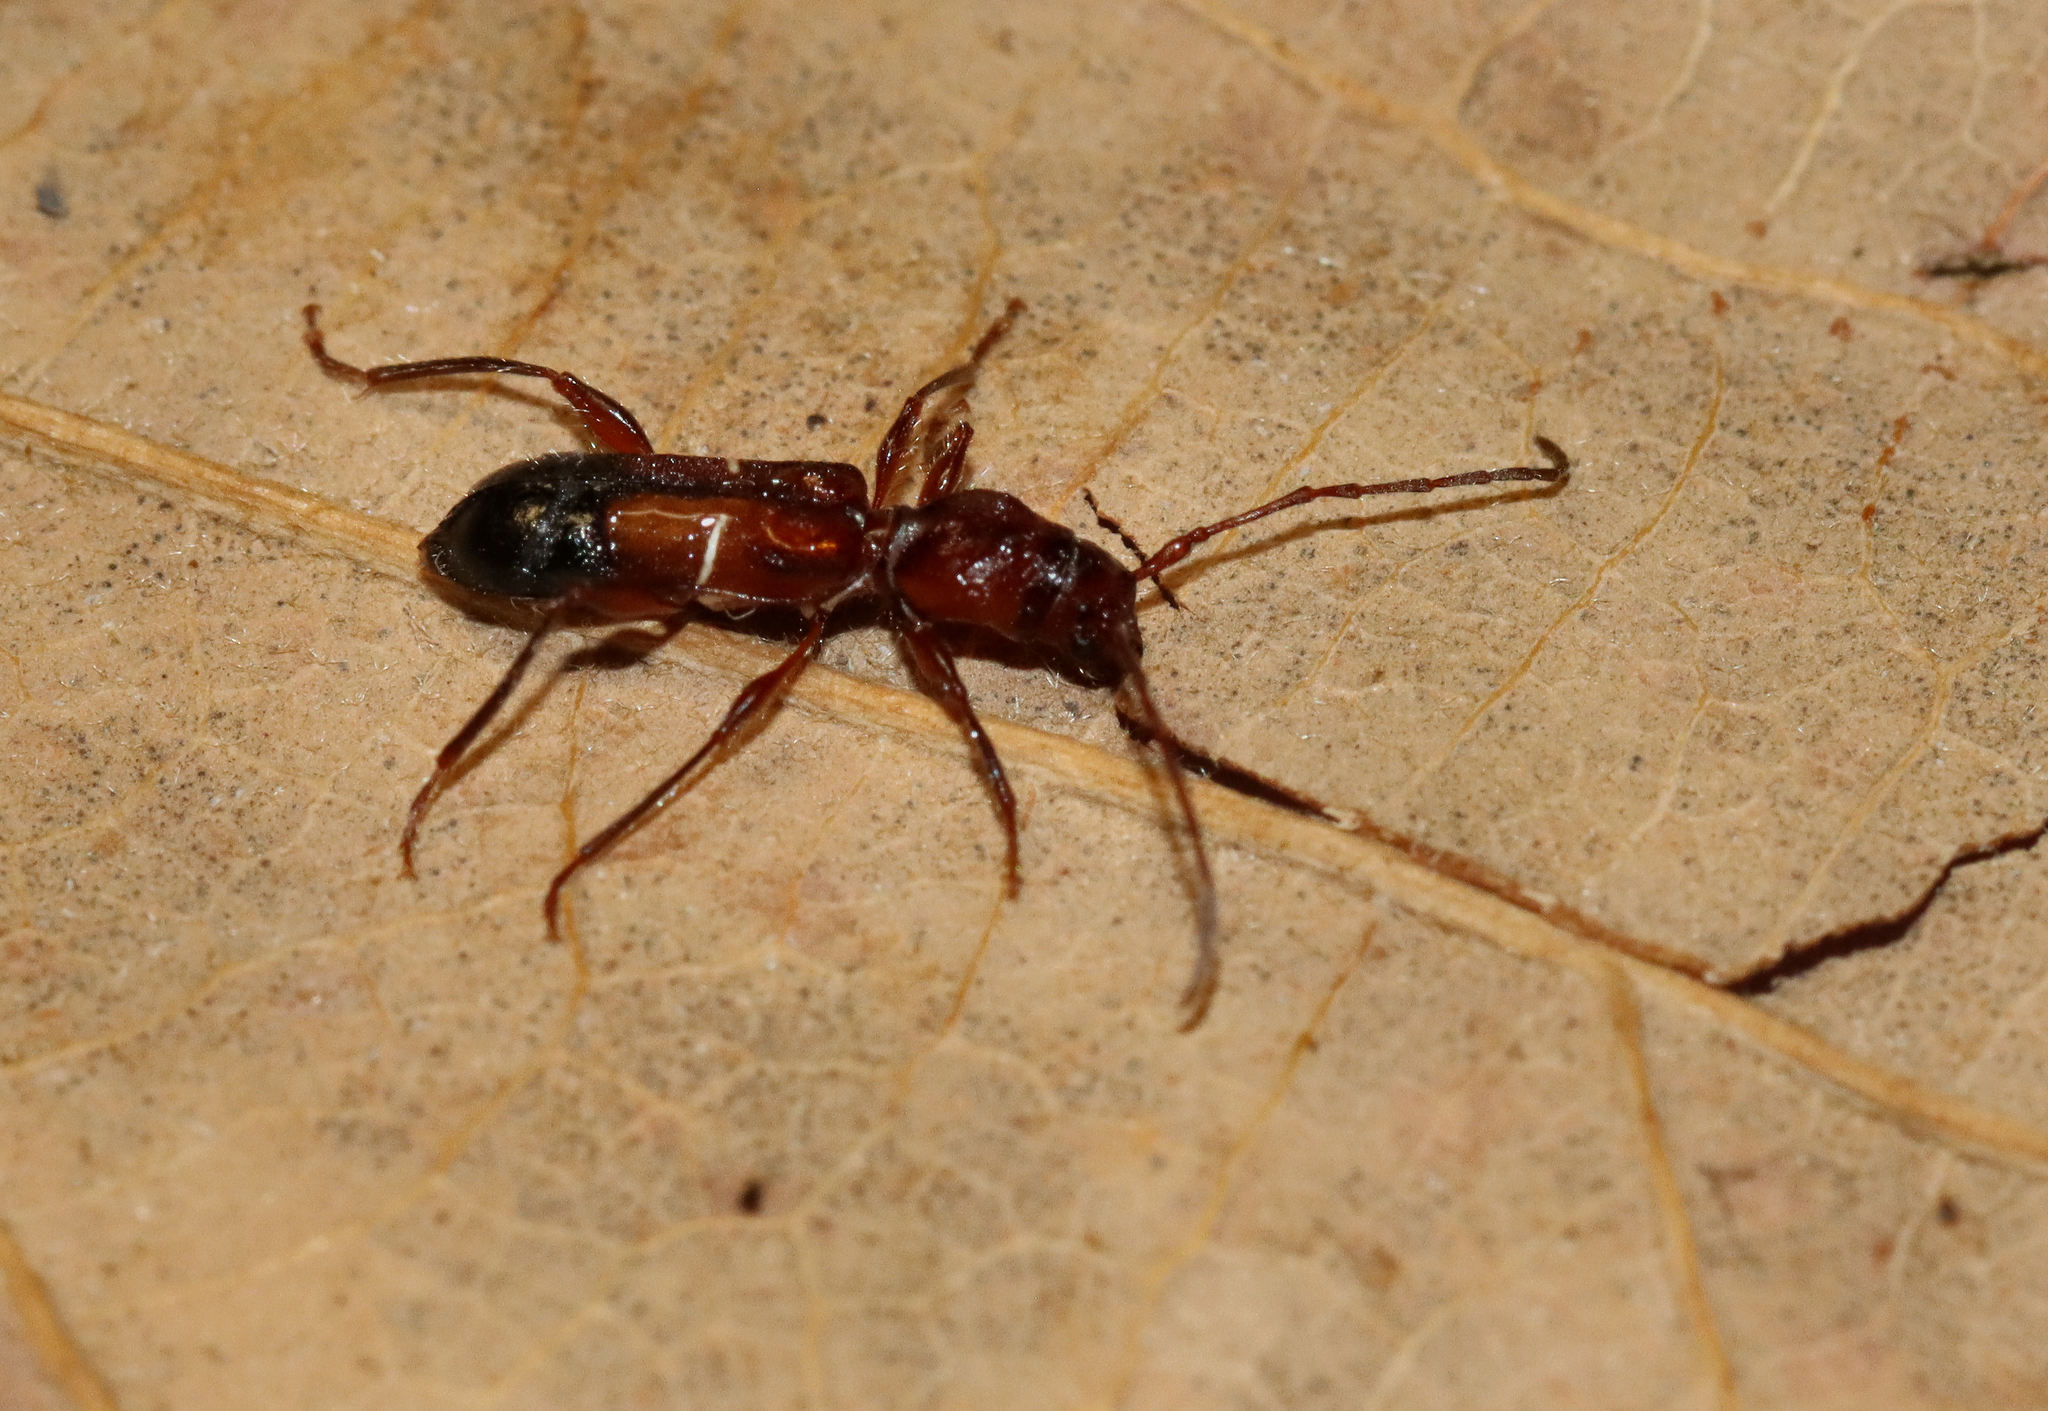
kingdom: Animalia
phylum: Arthropoda
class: Insecta
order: Coleoptera
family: Cerambycidae
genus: Euderces
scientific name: Euderces reichei
